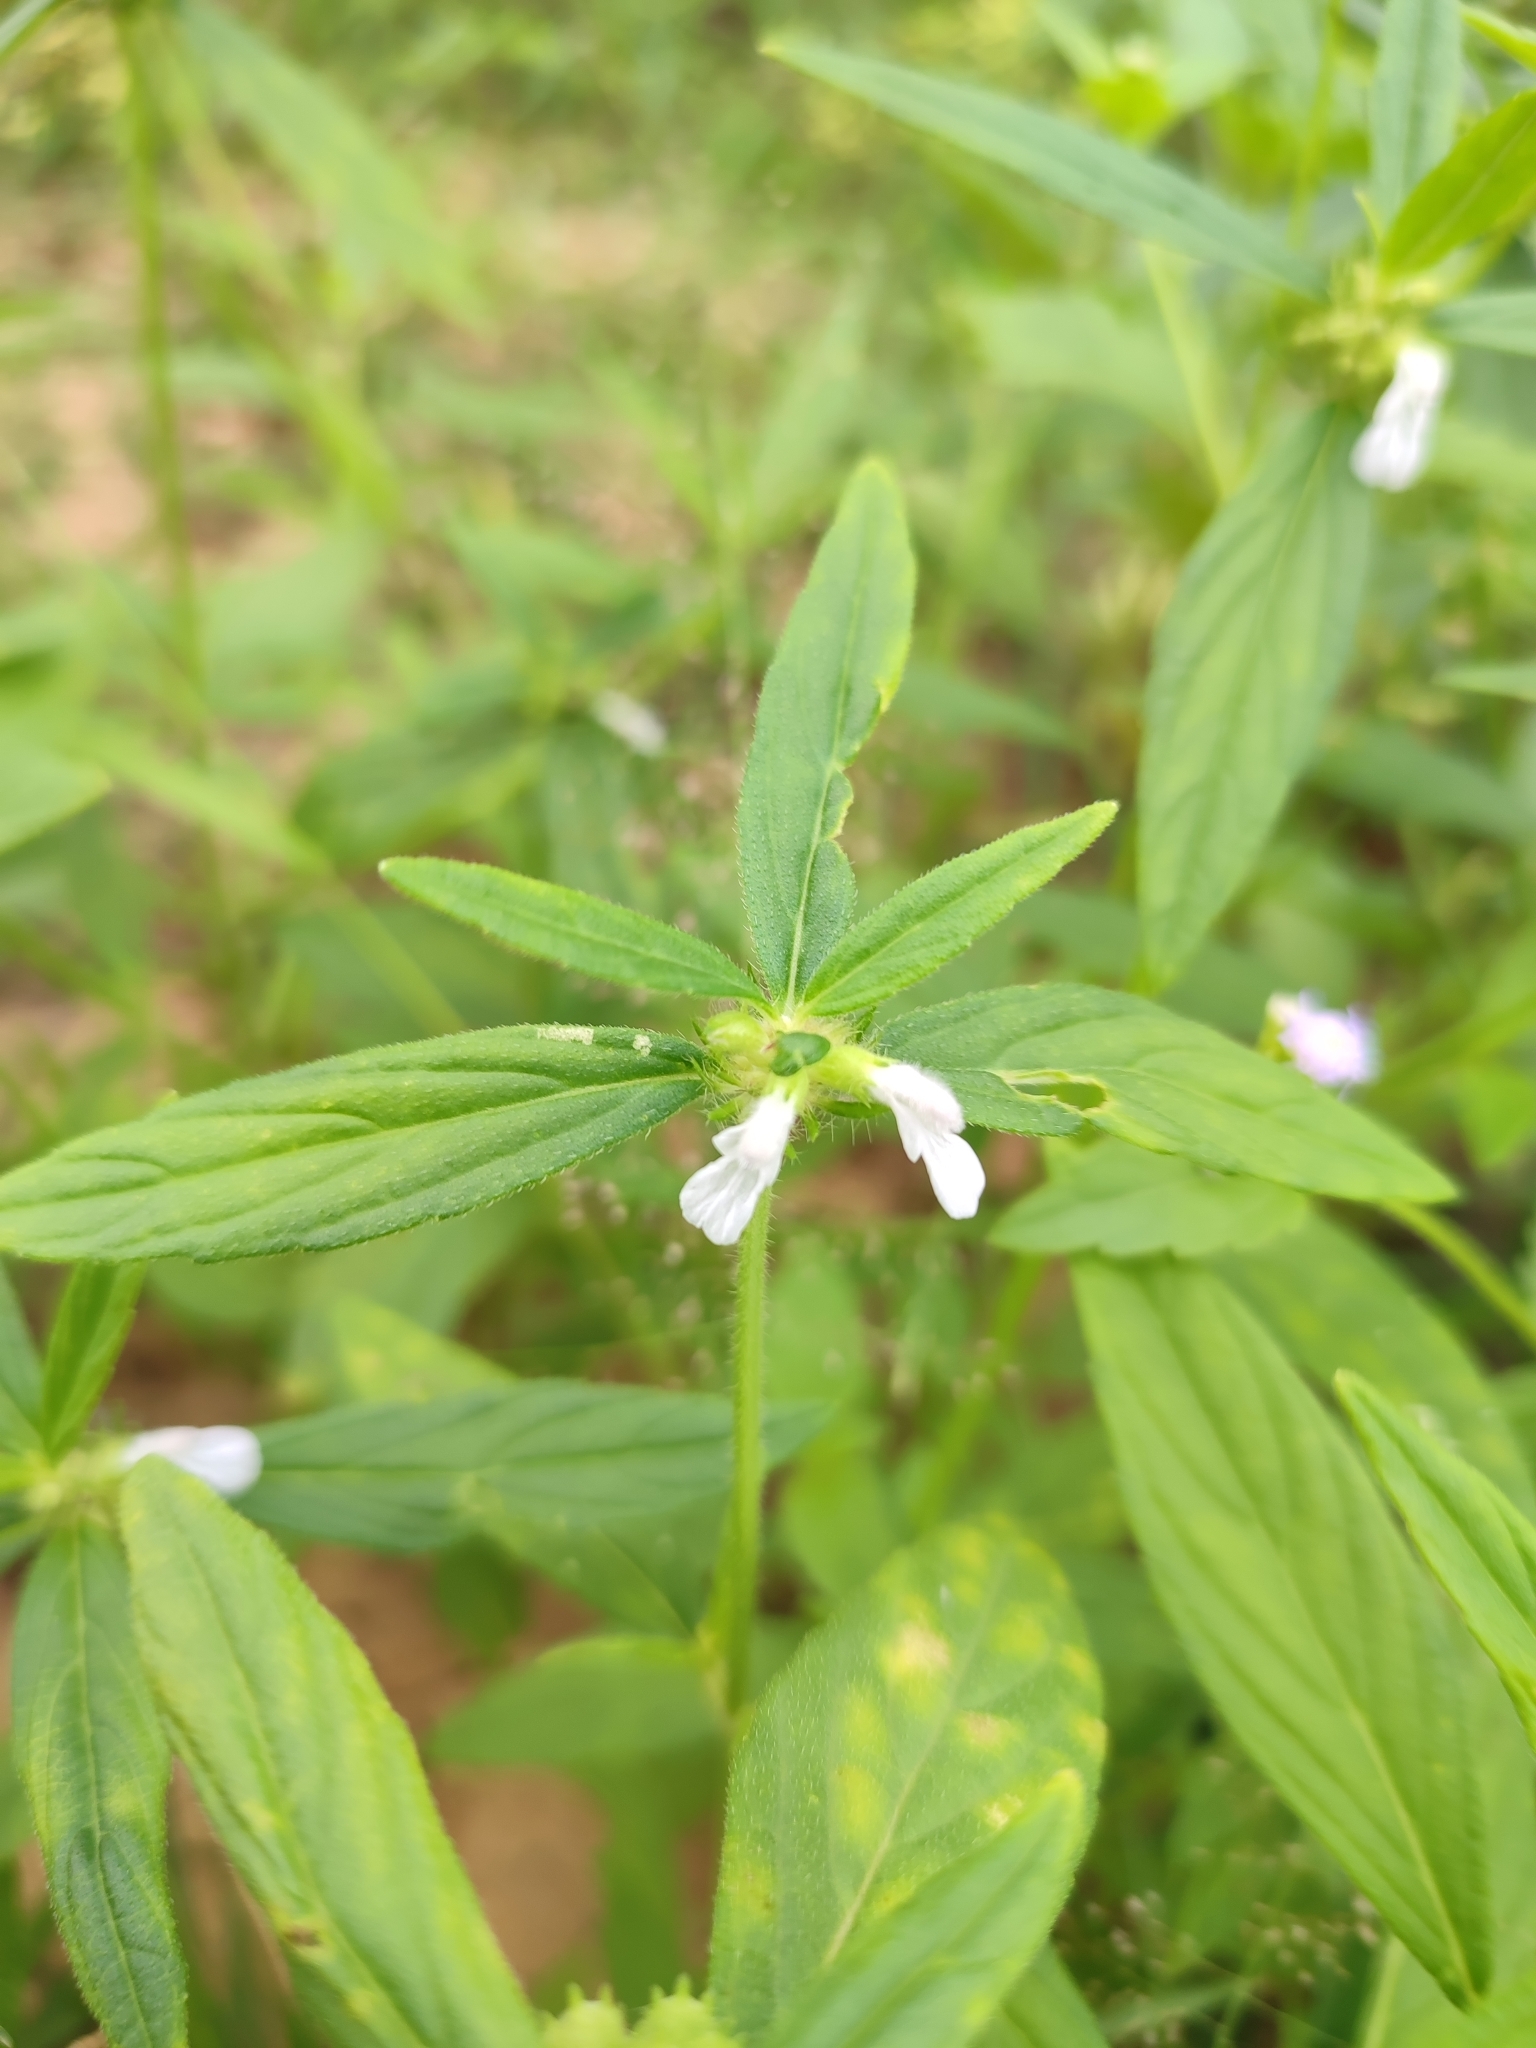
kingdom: Plantae
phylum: Tracheophyta
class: Magnoliopsida
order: Lamiales
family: Lamiaceae
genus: Leucas
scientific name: Leucas aspera
